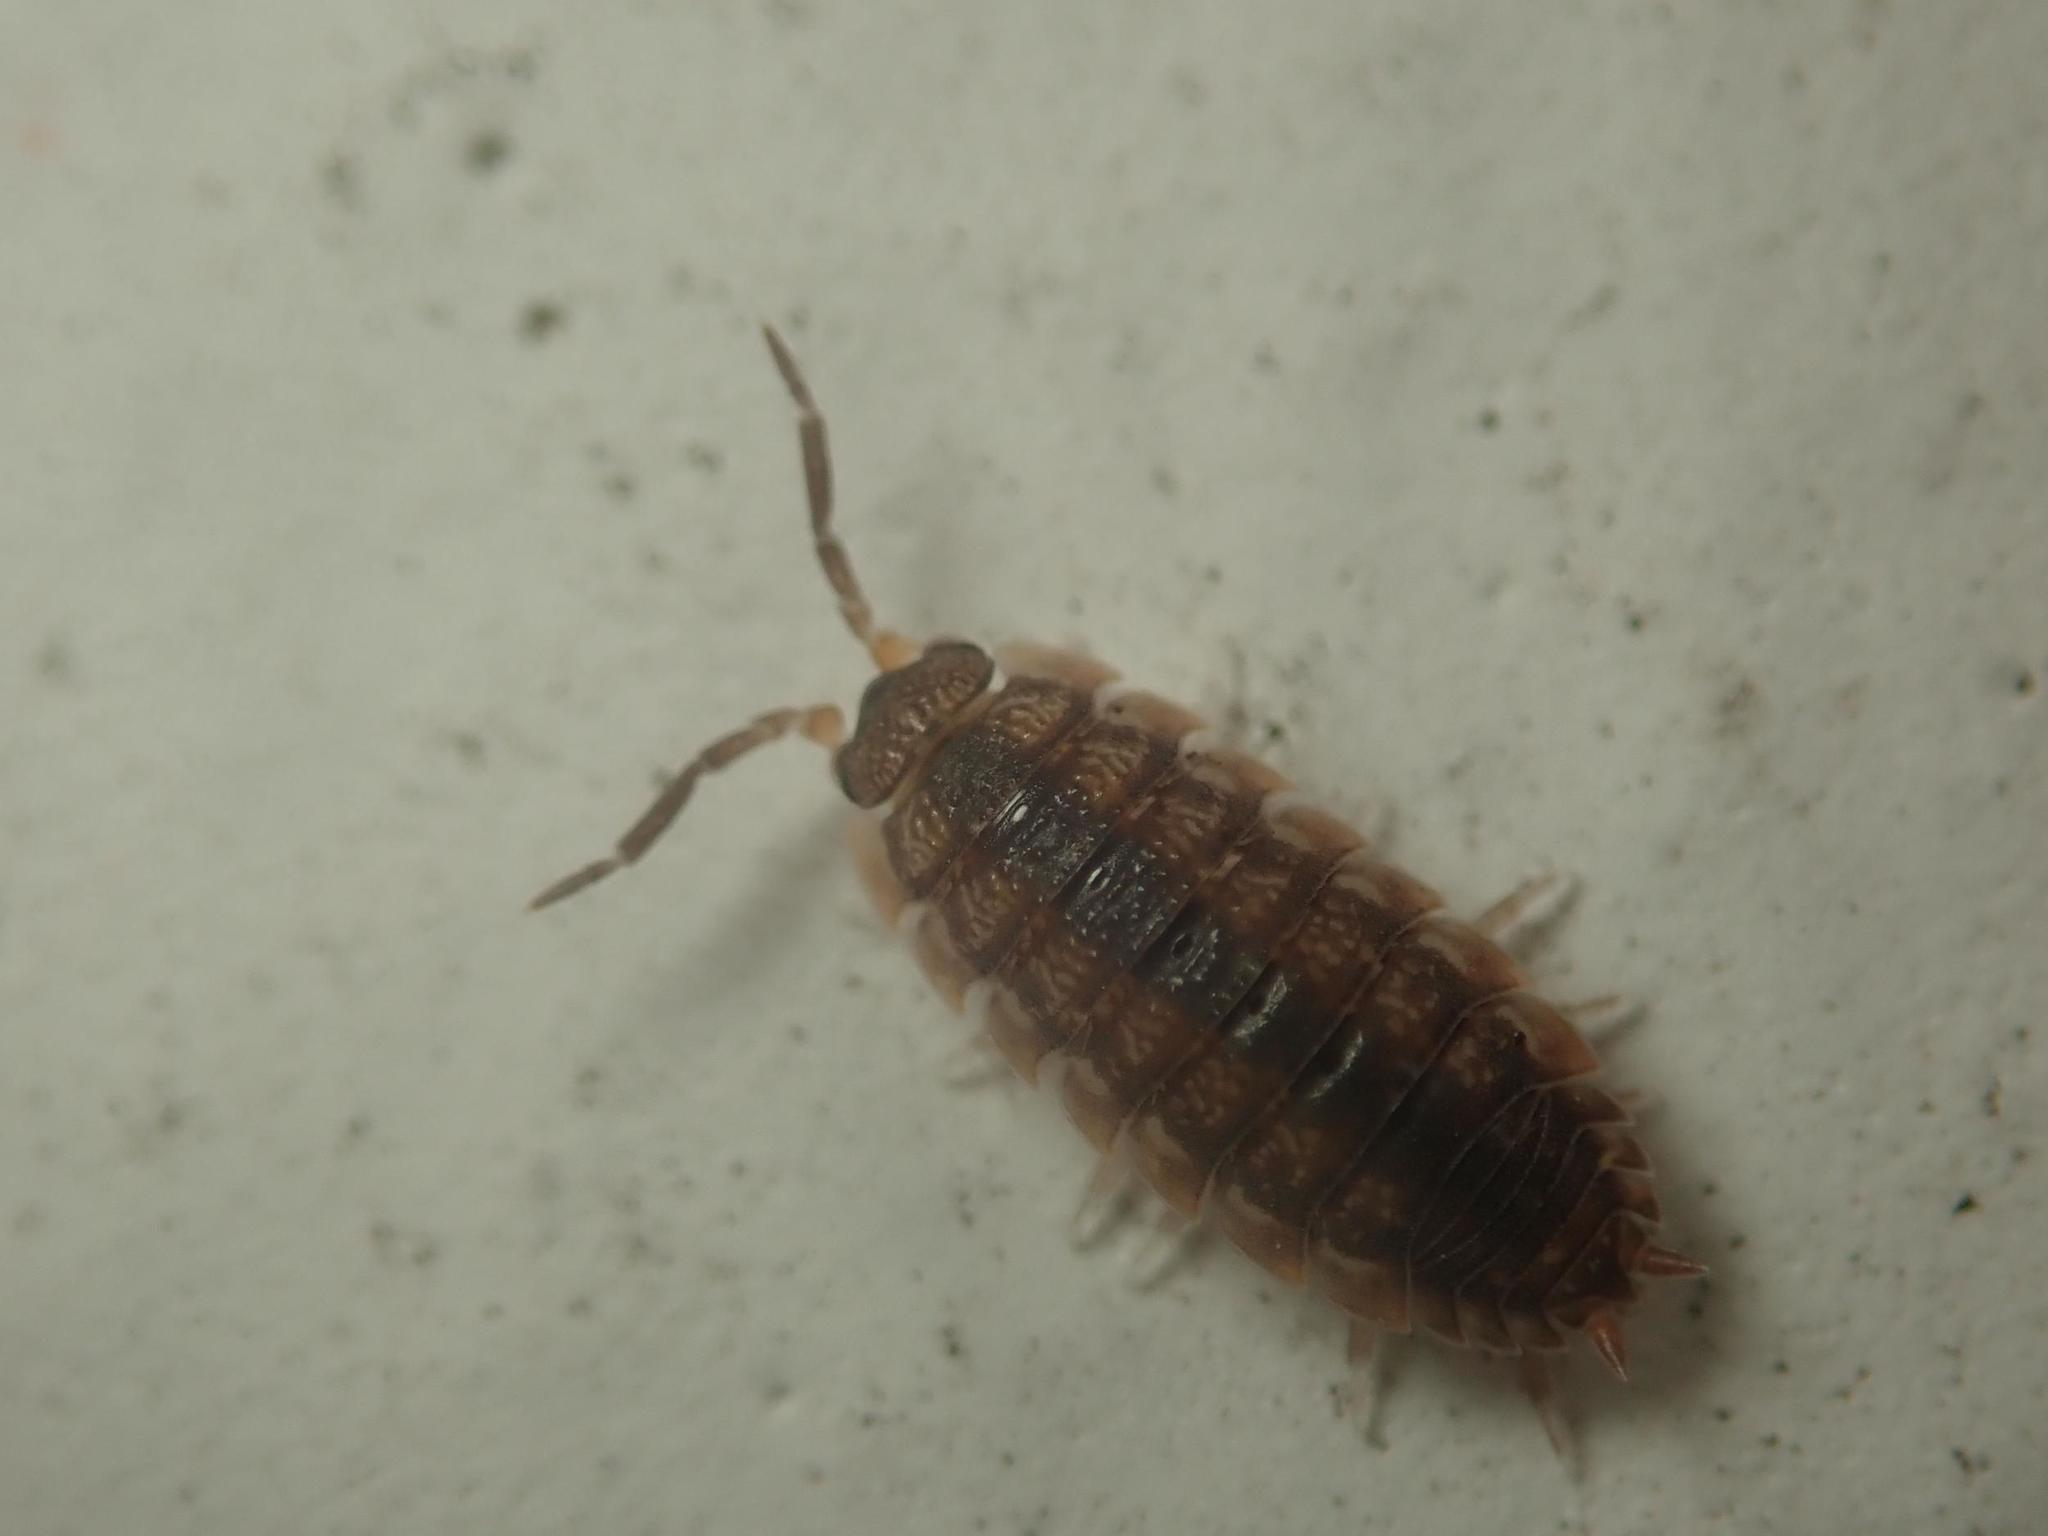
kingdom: Animalia
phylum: Arthropoda
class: Malacostraca
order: Isopoda
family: Porcellionidae
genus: Porcellio
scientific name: Porcellio scaber
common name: Common rough woodlouse
